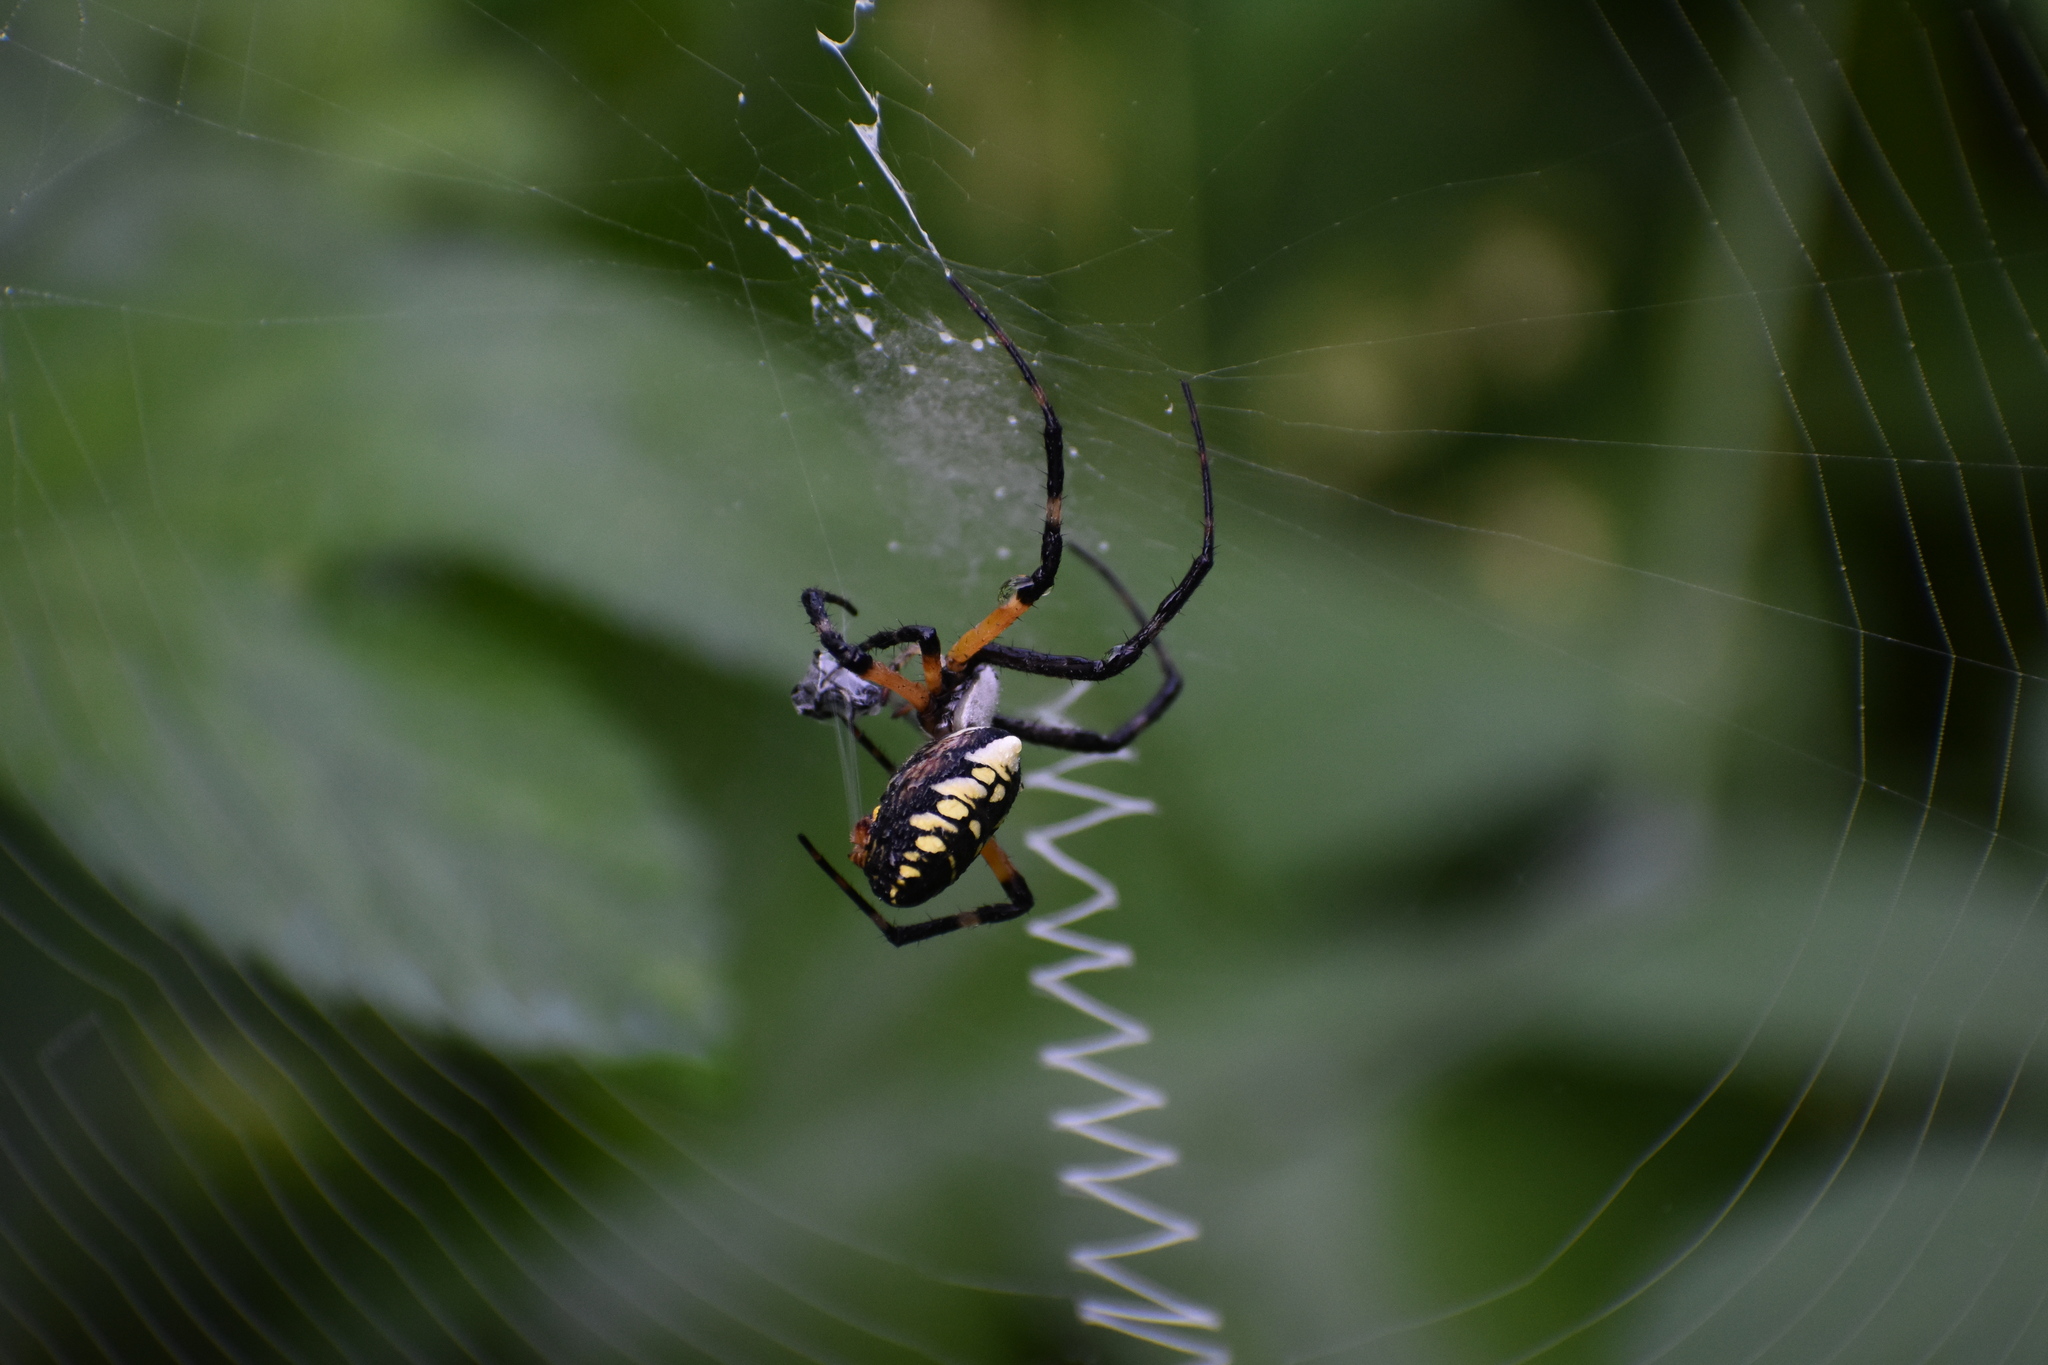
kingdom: Animalia
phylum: Arthropoda
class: Arachnida
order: Araneae
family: Araneidae
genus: Argiope
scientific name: Argiope aurantia
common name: Orb weavers
